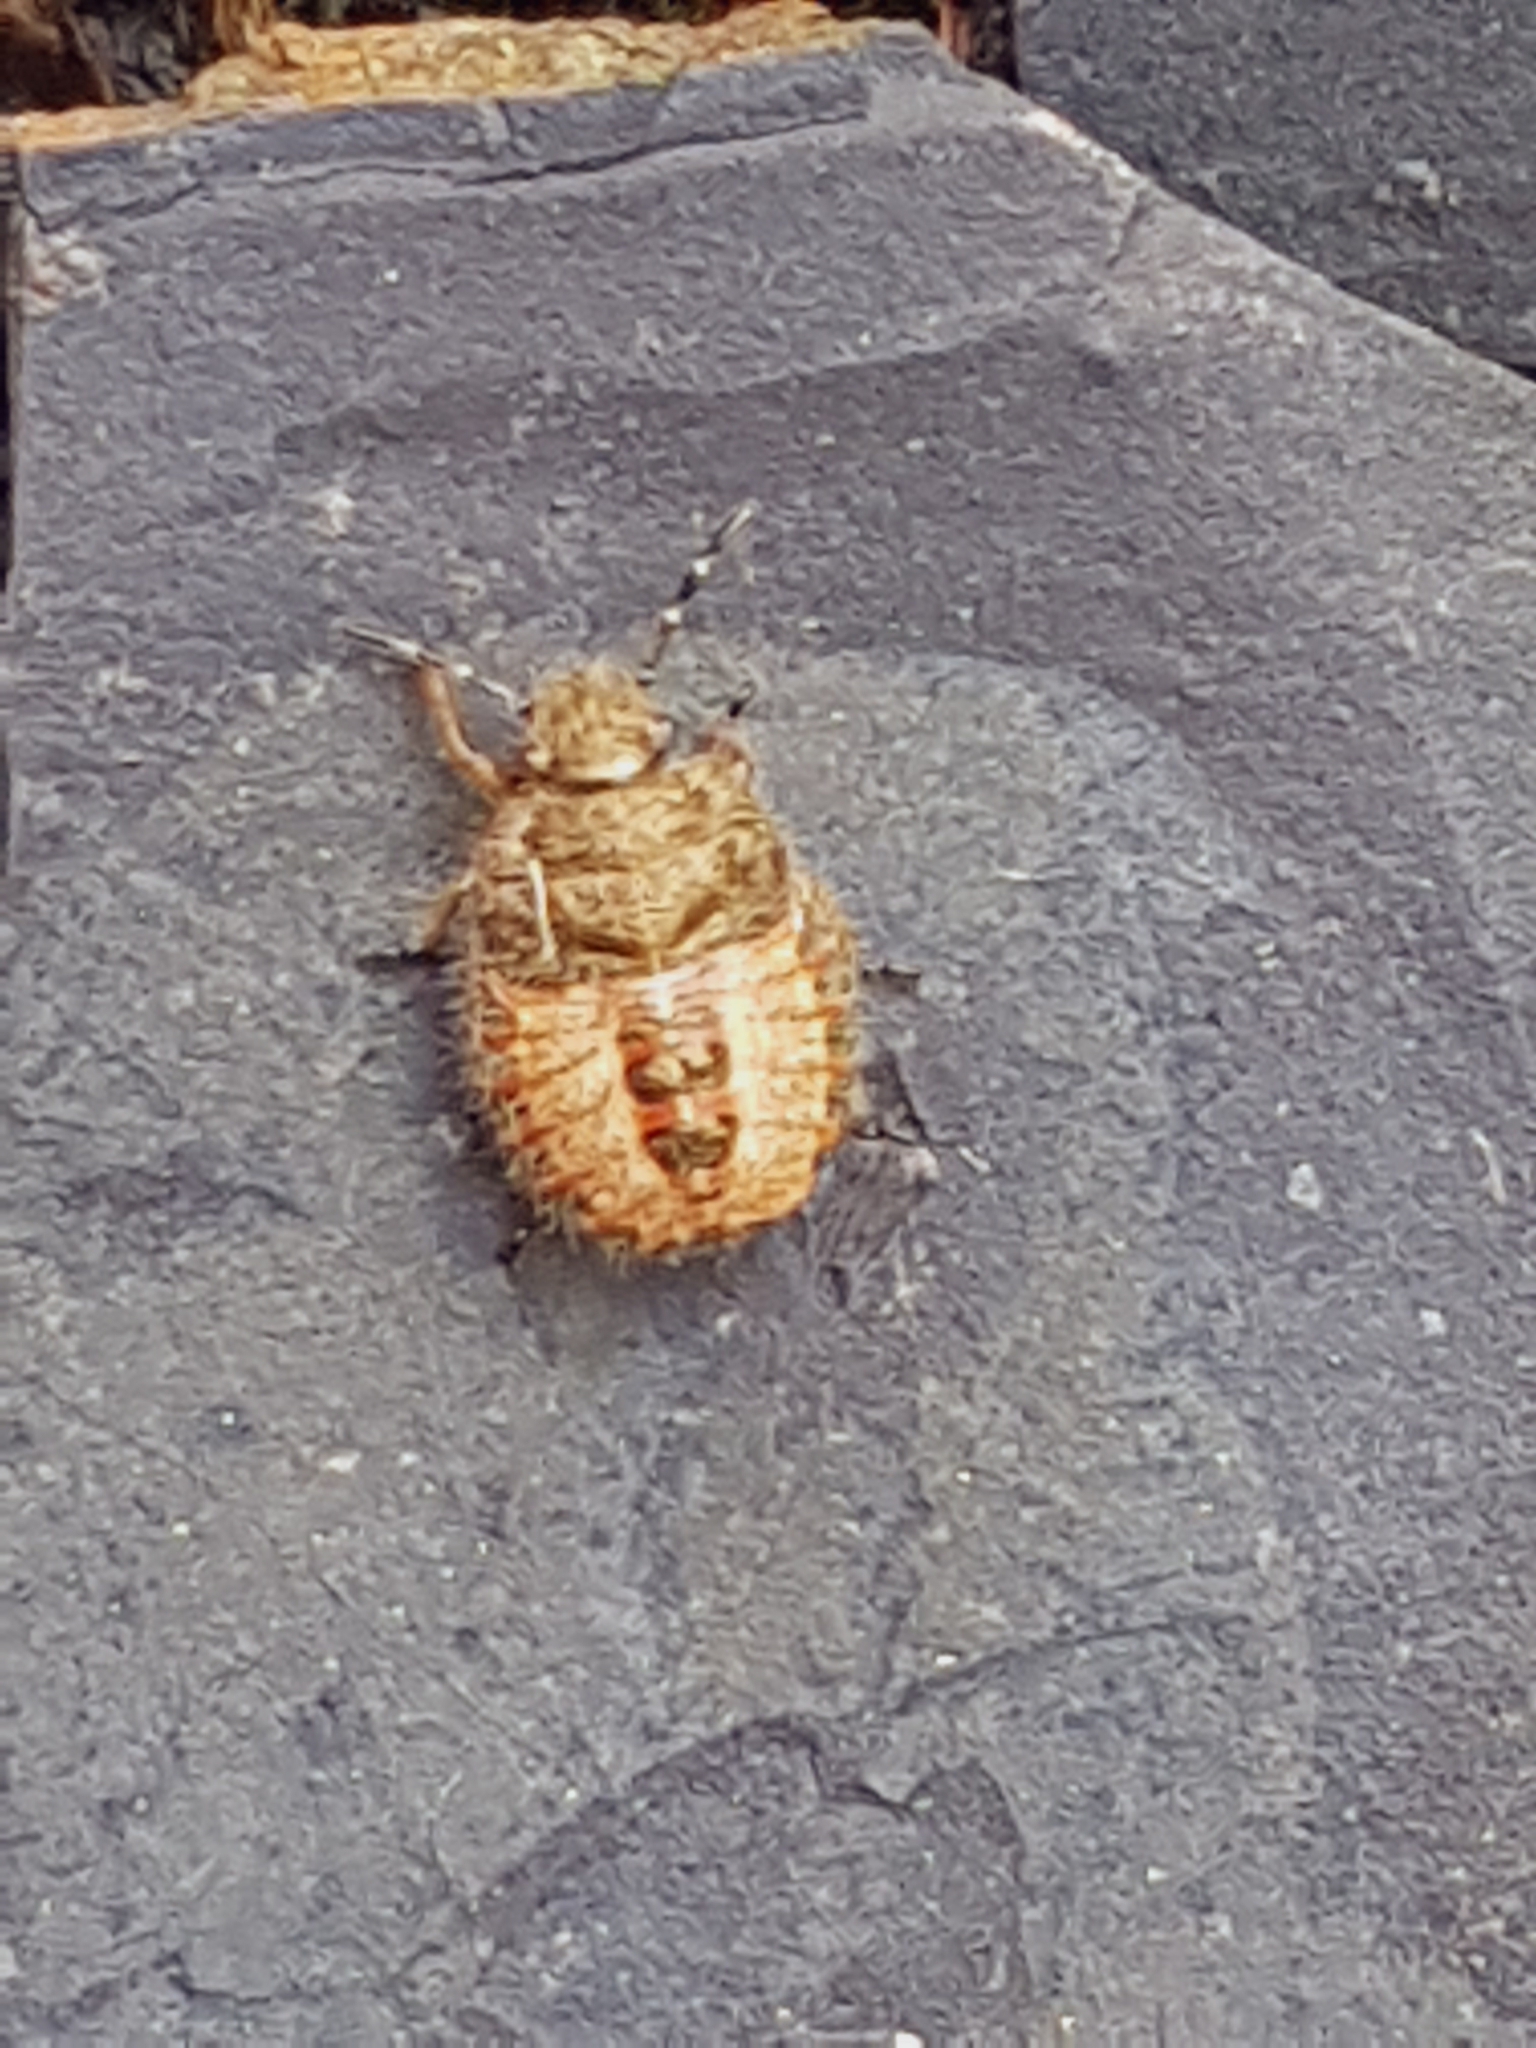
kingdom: Animalia
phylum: Arthropoda
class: Insecta
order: Hemiptera
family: Pentatomidae
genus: Dolycoris
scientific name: Dolycoris baccarum
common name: Sloe bug
